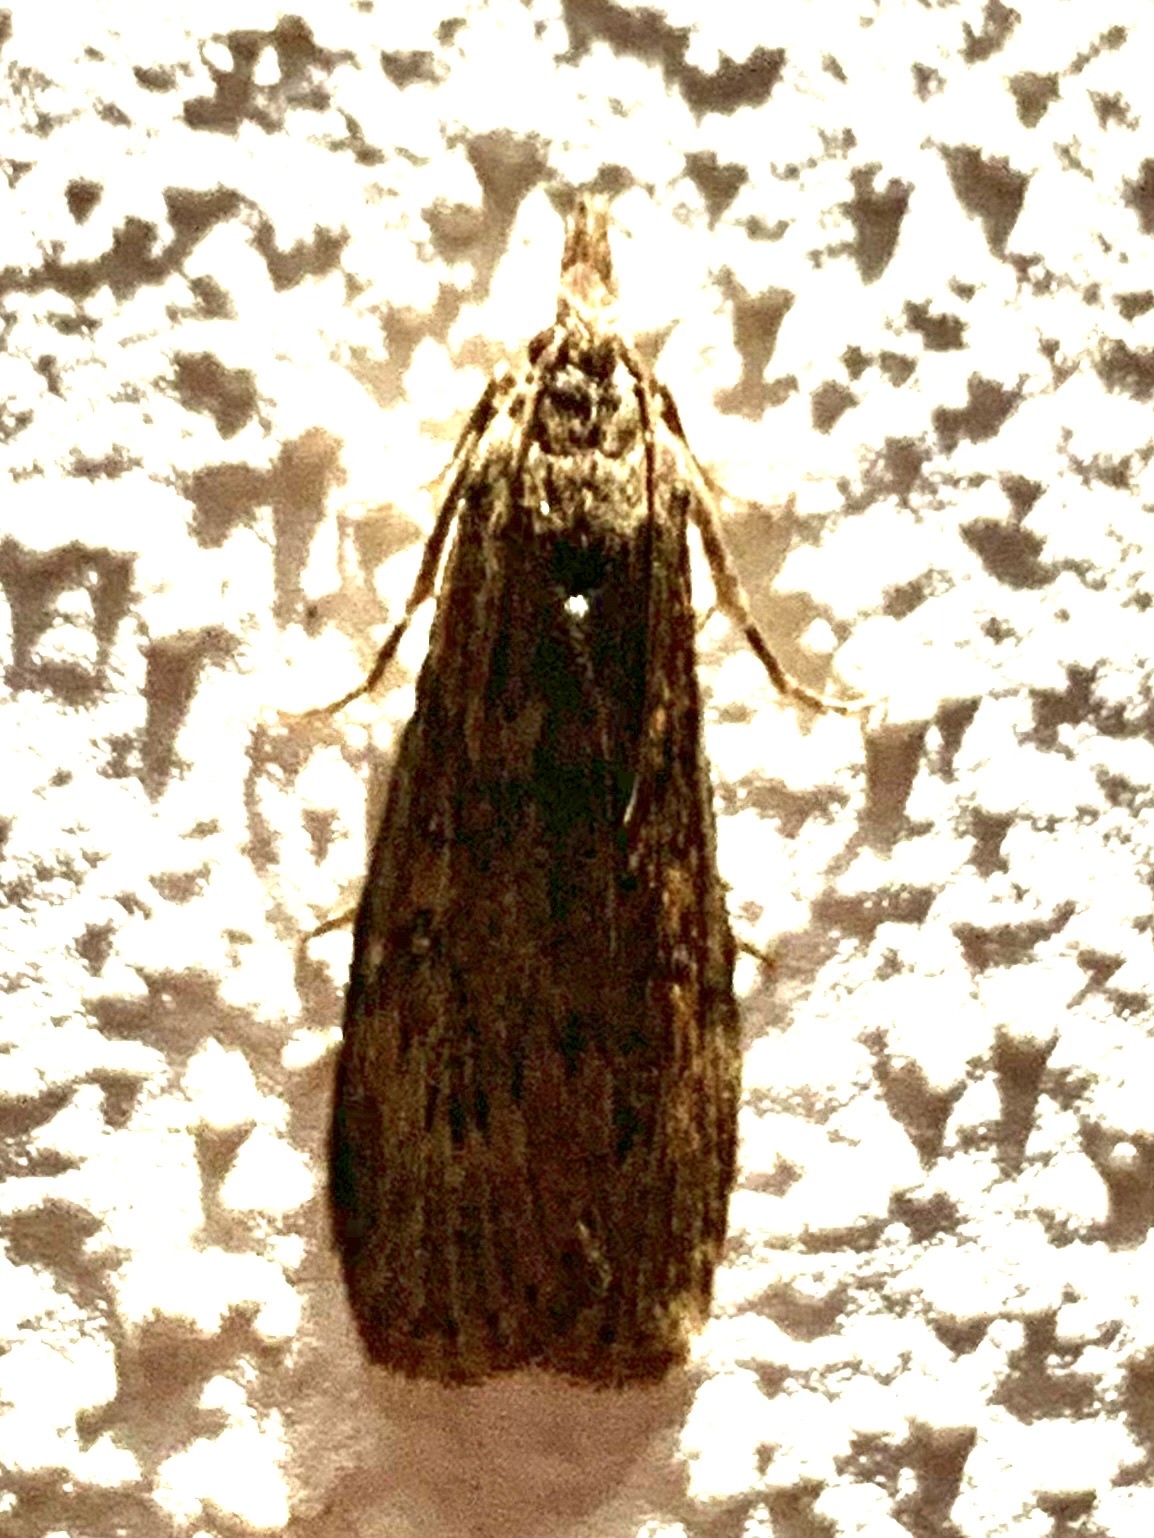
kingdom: Animalia
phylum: Arthropoda
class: Insecta
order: Lepidoptera
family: Pyralidae
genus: Lamoria
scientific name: Lamoria anella
